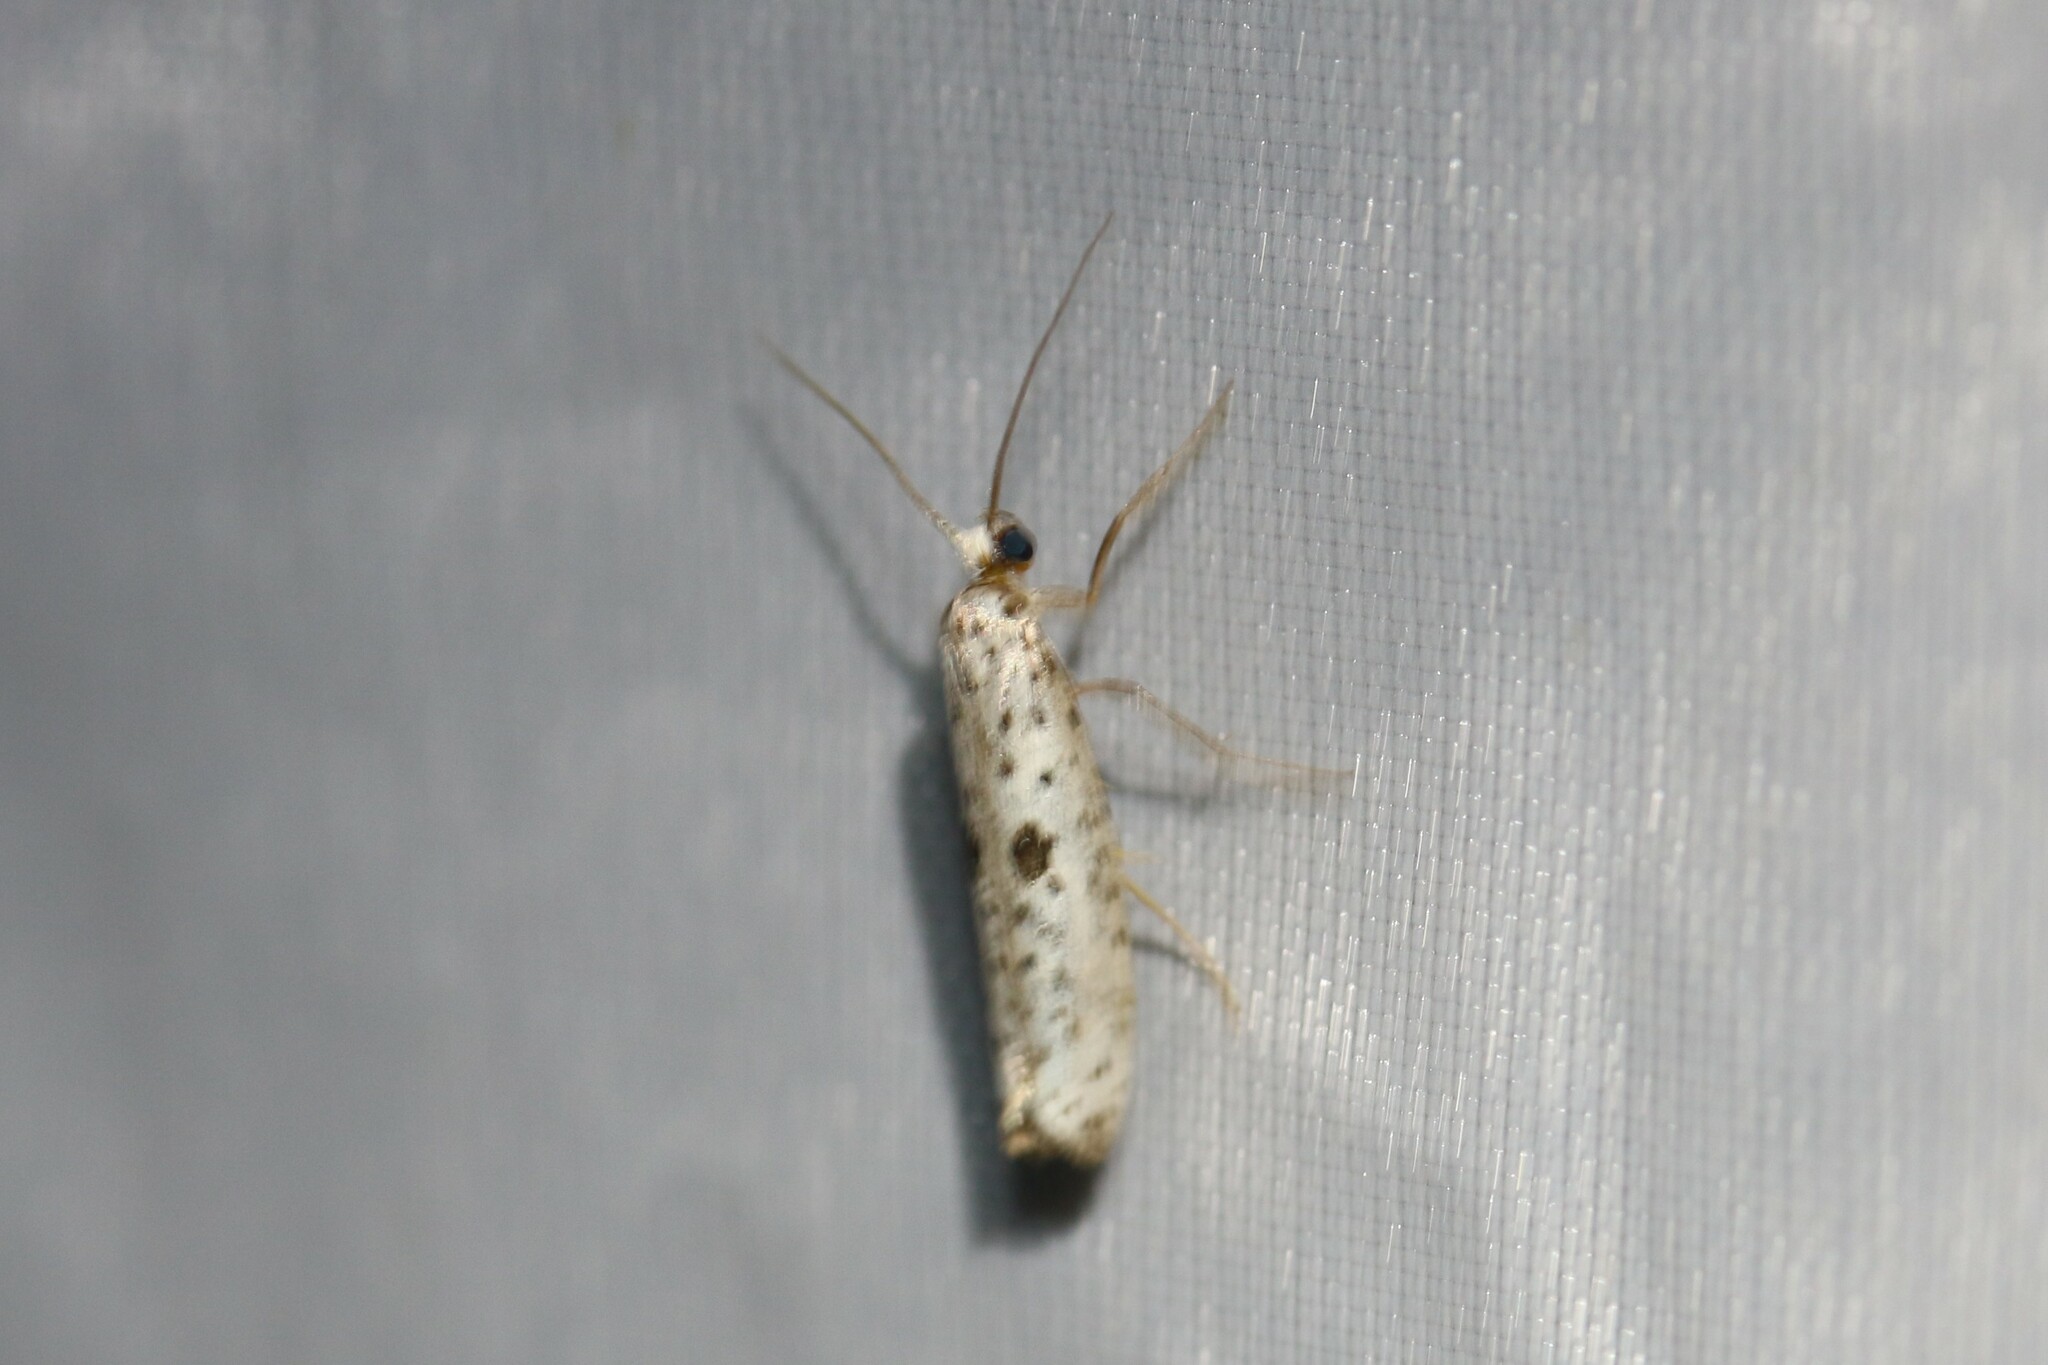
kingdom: Animalia
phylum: Arthropoda
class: Insecta
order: Lepidoptera
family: Yponomeutidae
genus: Yponomeuta
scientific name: Yponomeuta plumbella
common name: Black-tipped ermine
